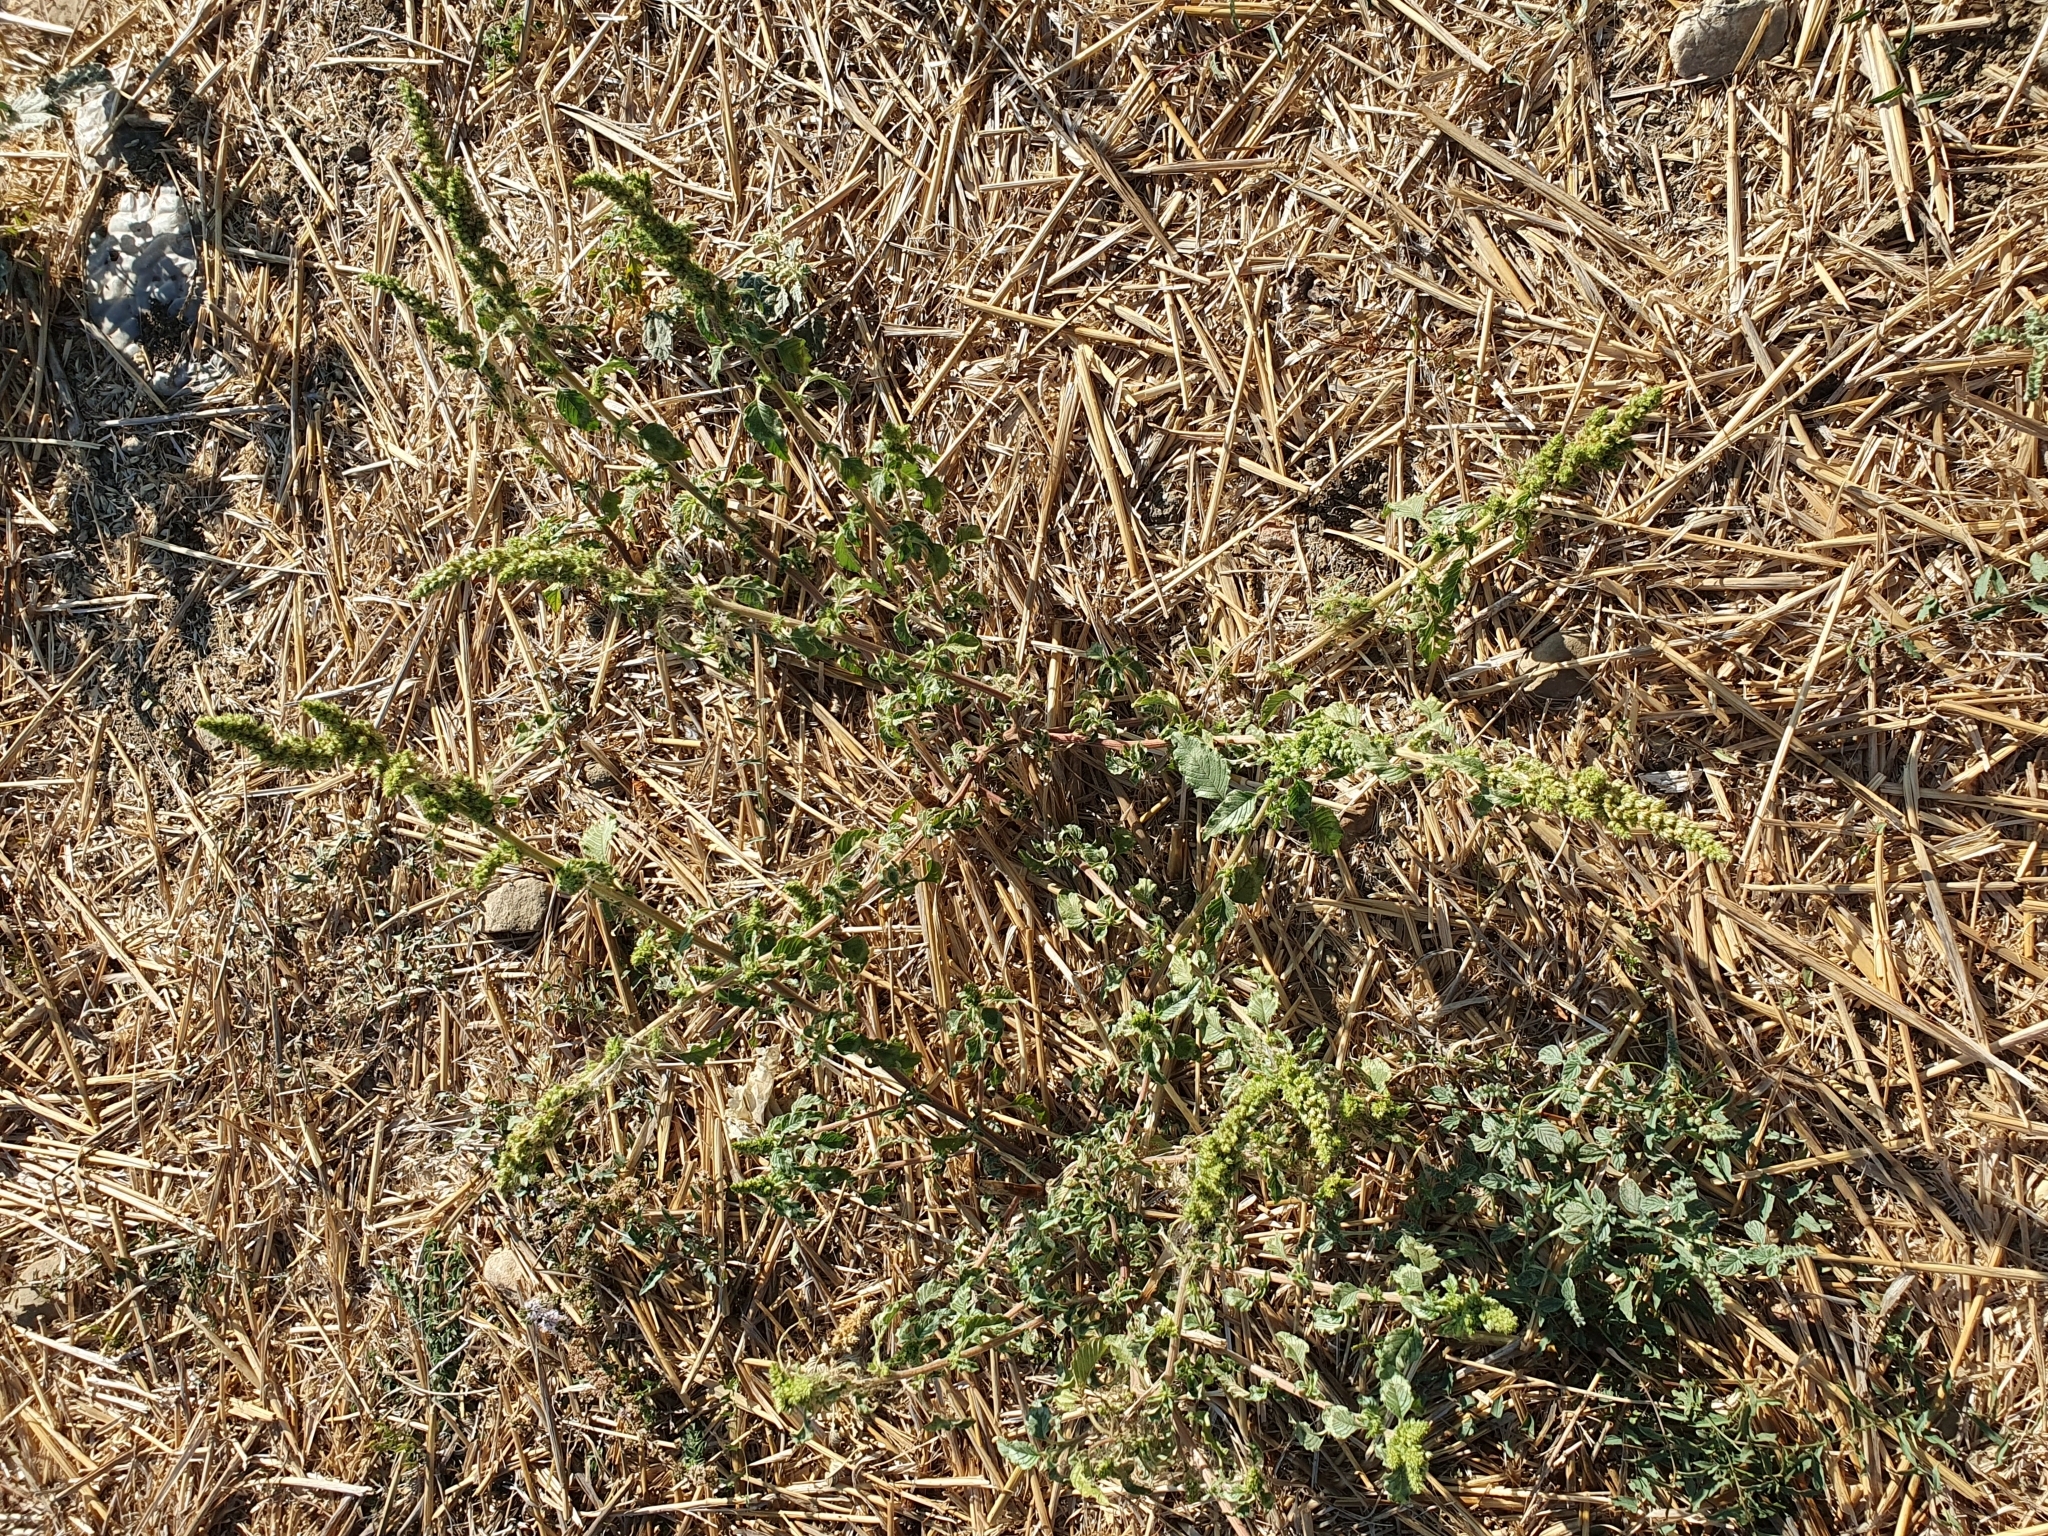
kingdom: Plantae
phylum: Tracheophyta
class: Magnoliopsida
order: Caryophyllales
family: Amaranthaceae
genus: Amaranthus
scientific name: Amaranthus retroflexus
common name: Redroot amaranth
